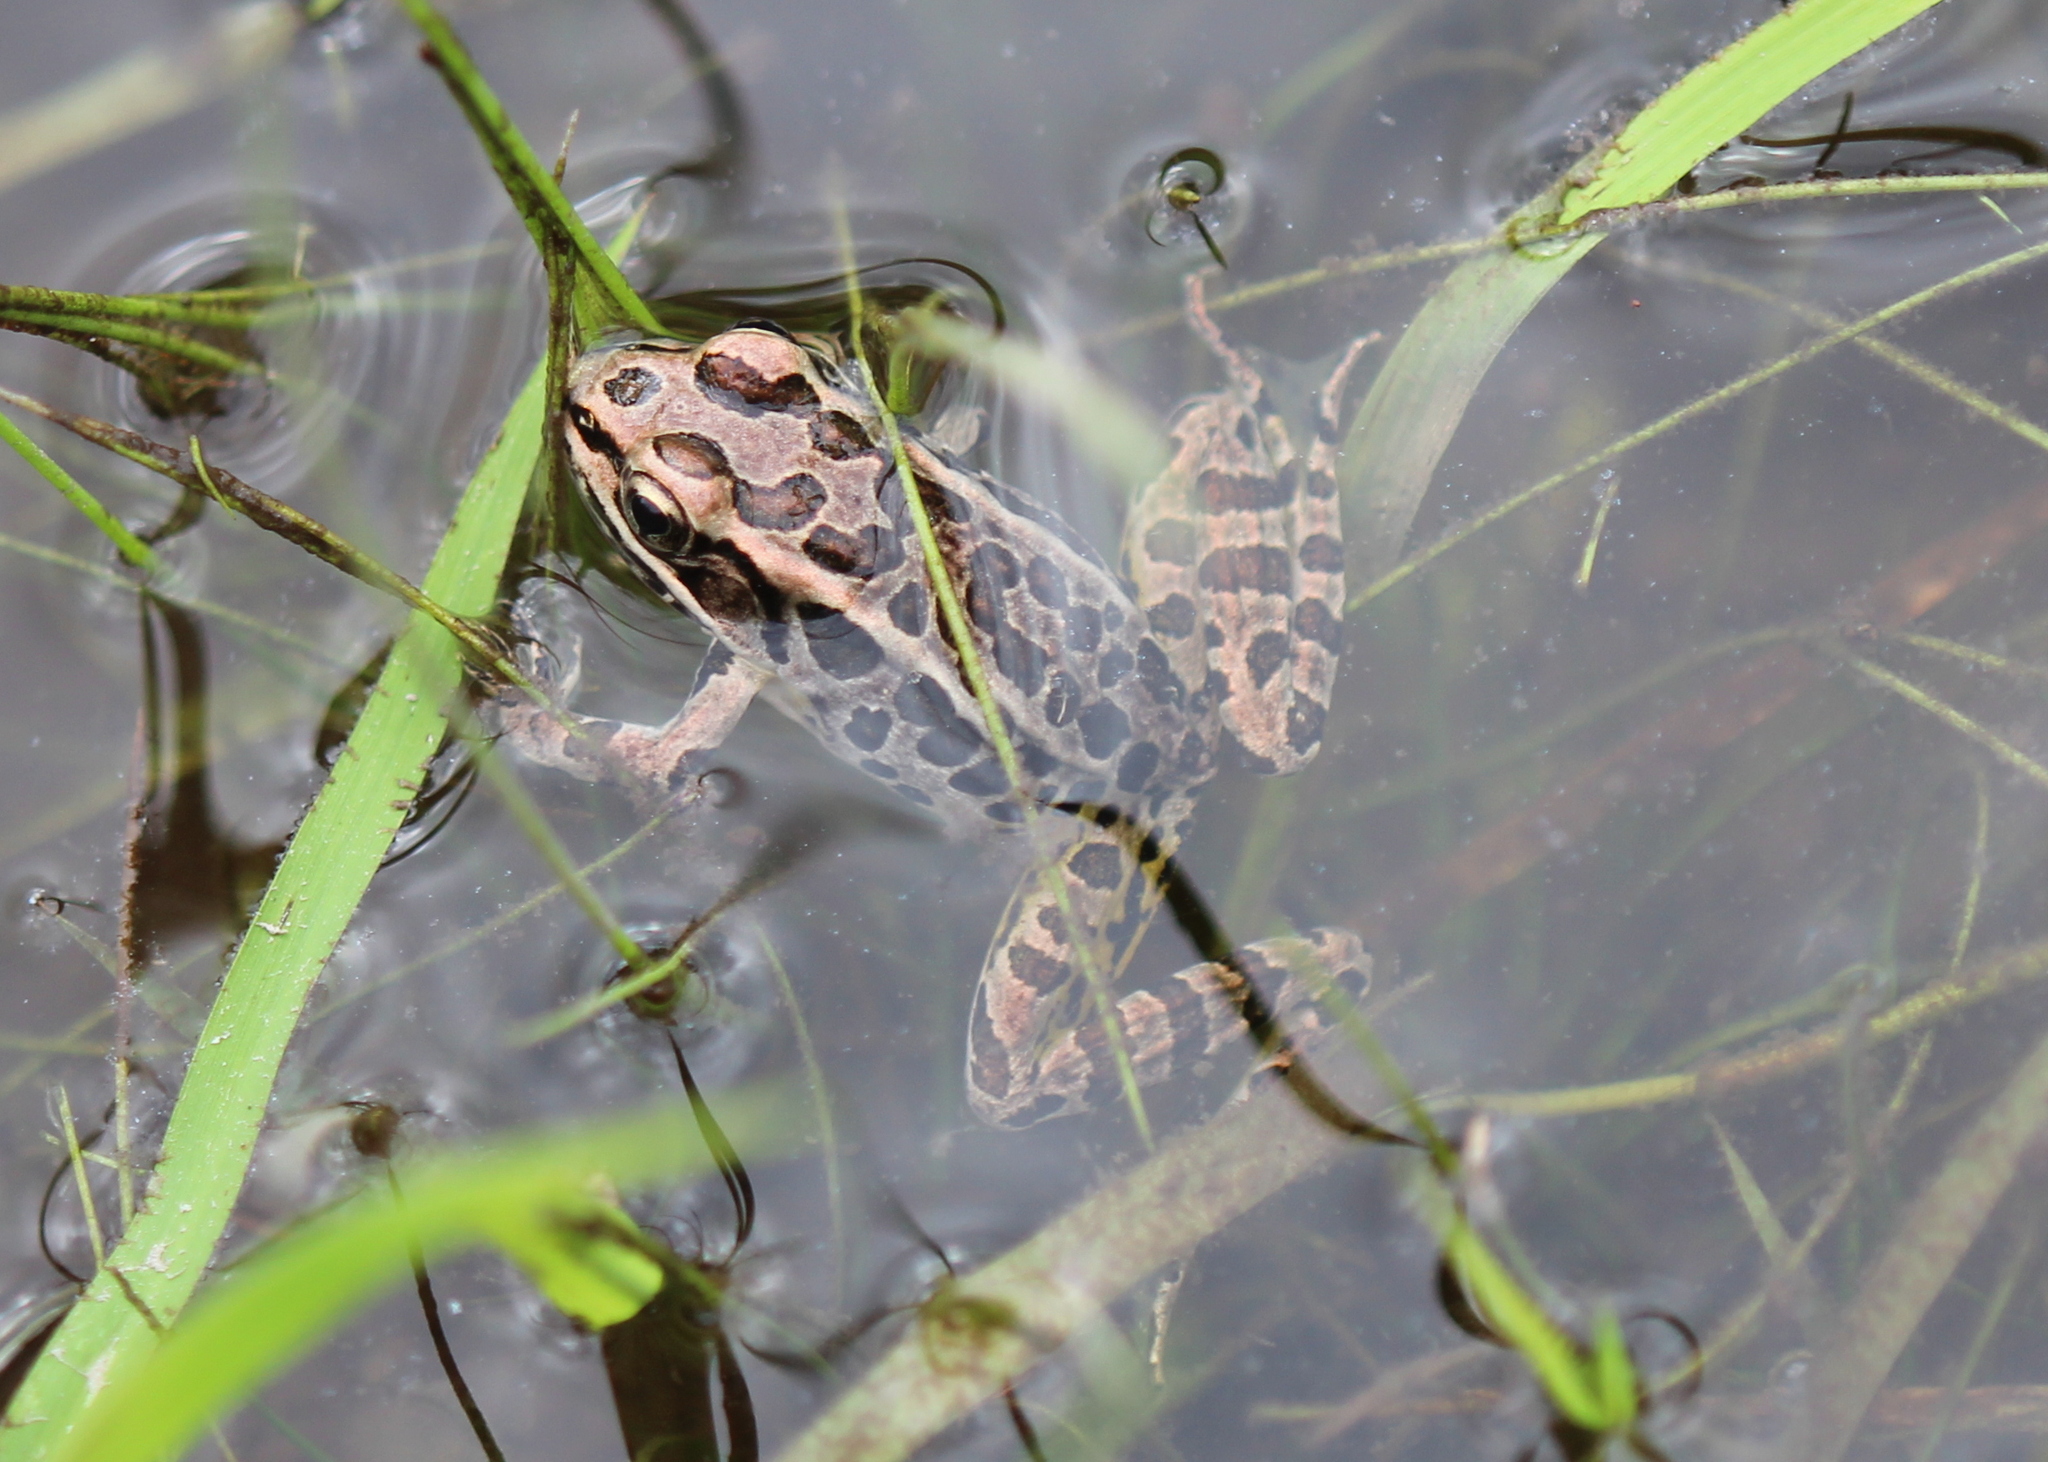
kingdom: Animalia
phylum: Chordata
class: Amphibia
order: Anura
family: Ranidae
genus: Lithobates
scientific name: Lithobates palustris
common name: Pickerel frog
